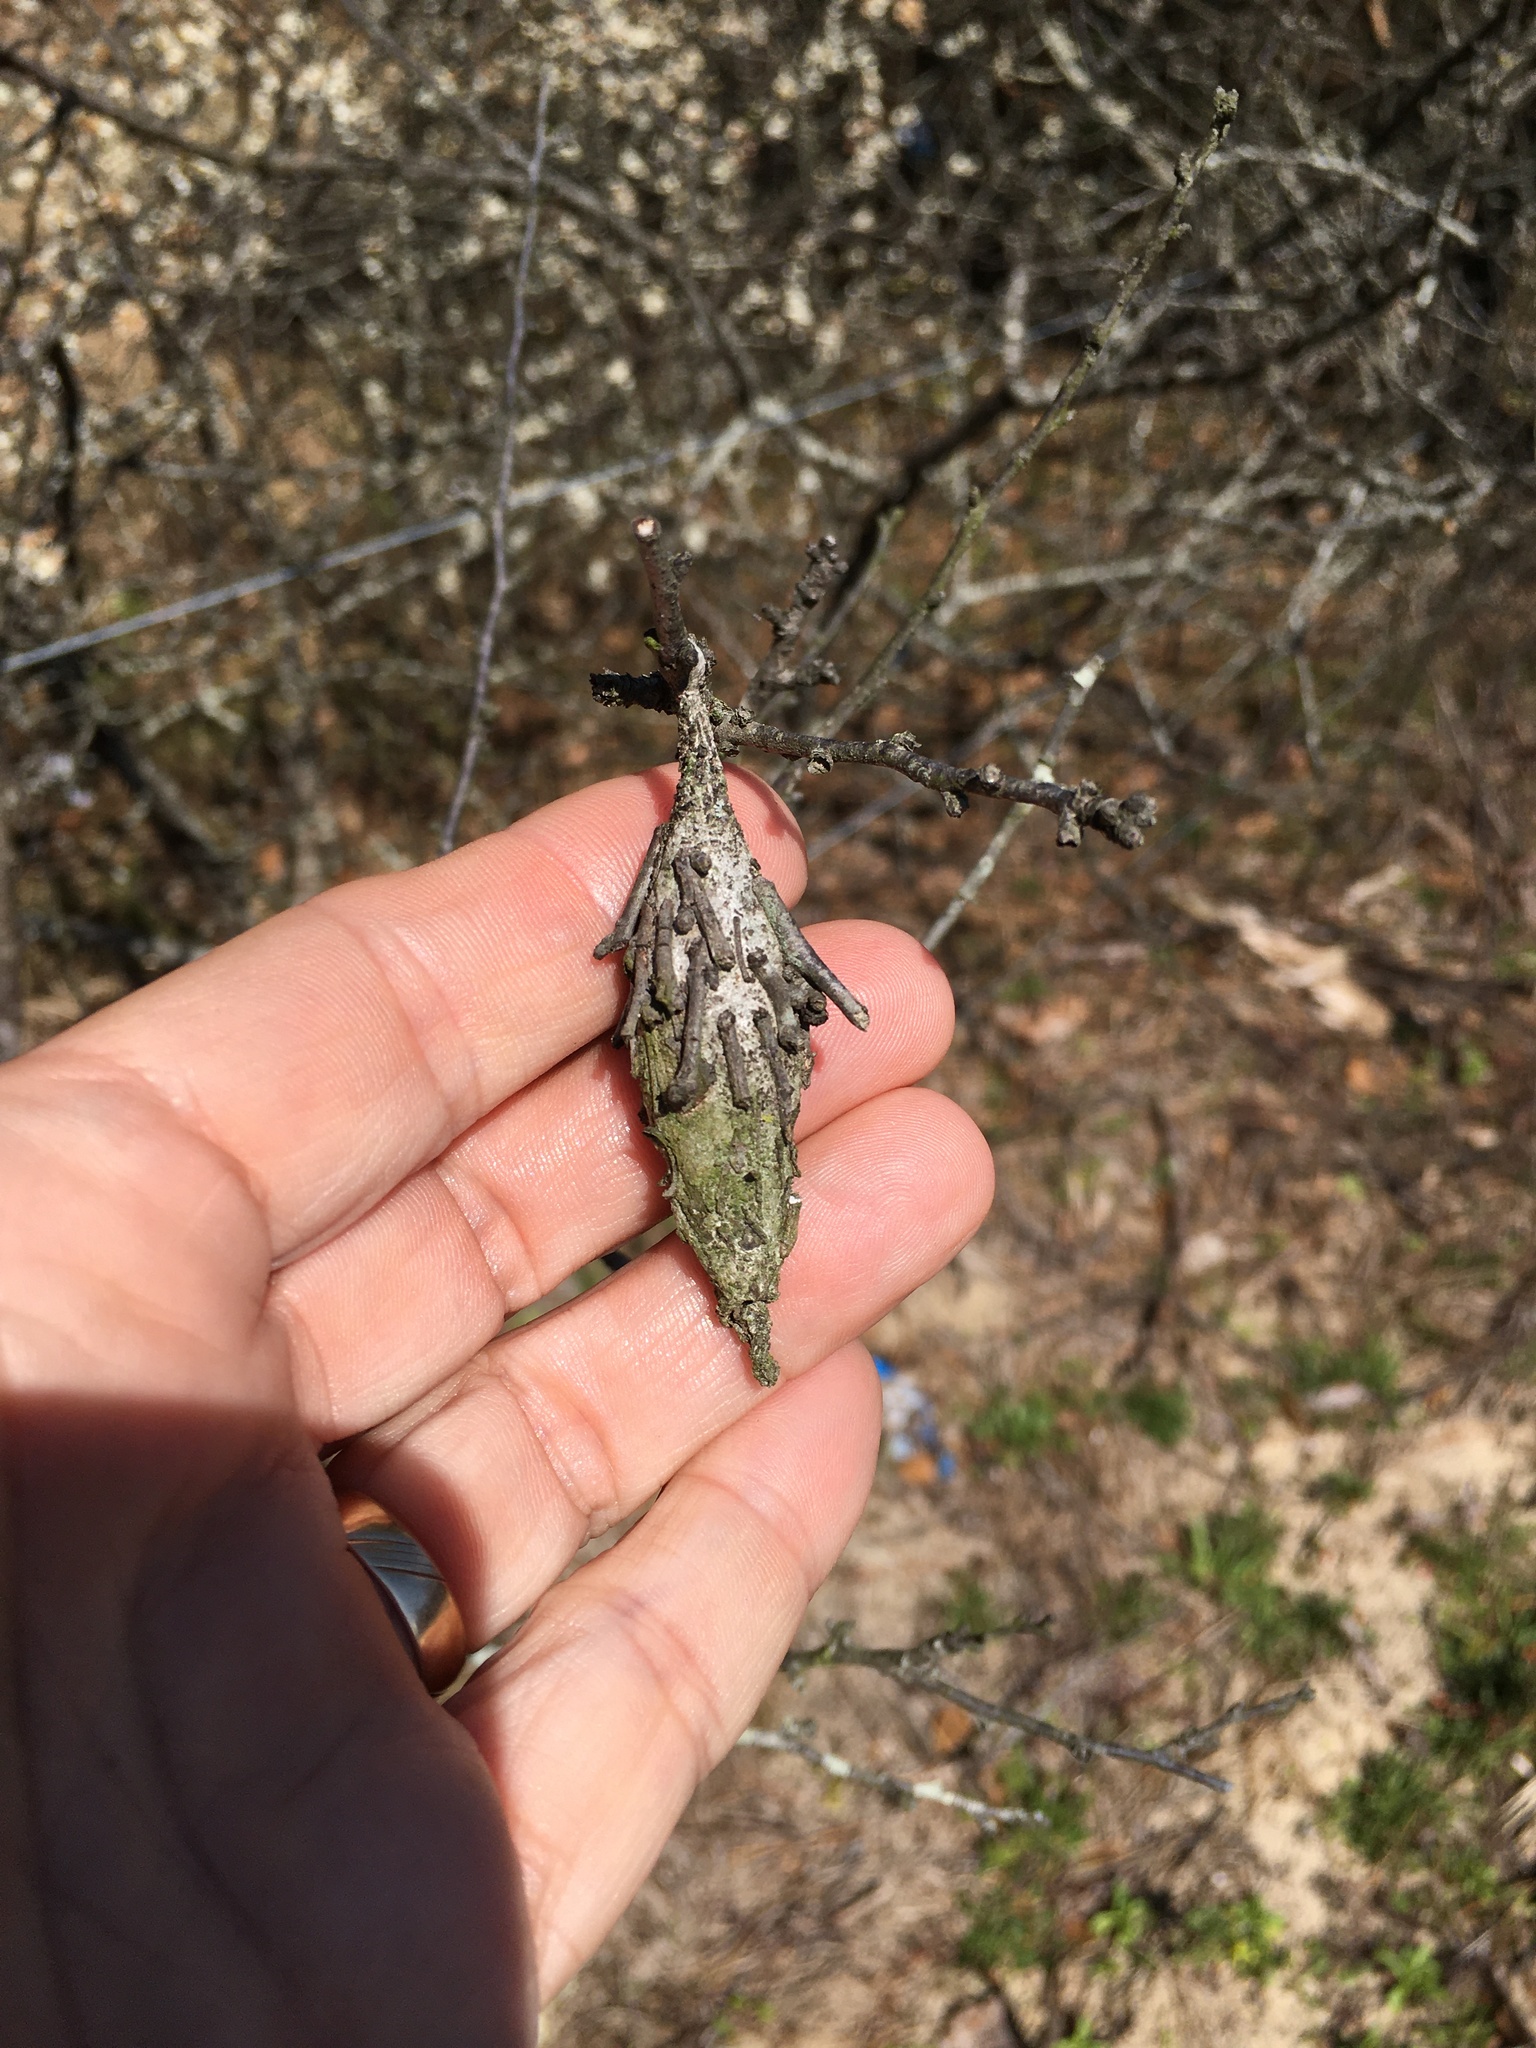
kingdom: Animalia
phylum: Arthropoda
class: Insecta
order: Lepidoptera
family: Psychidae
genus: Thyridopteryx
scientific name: Thyridopteryx ephemeraeformis
